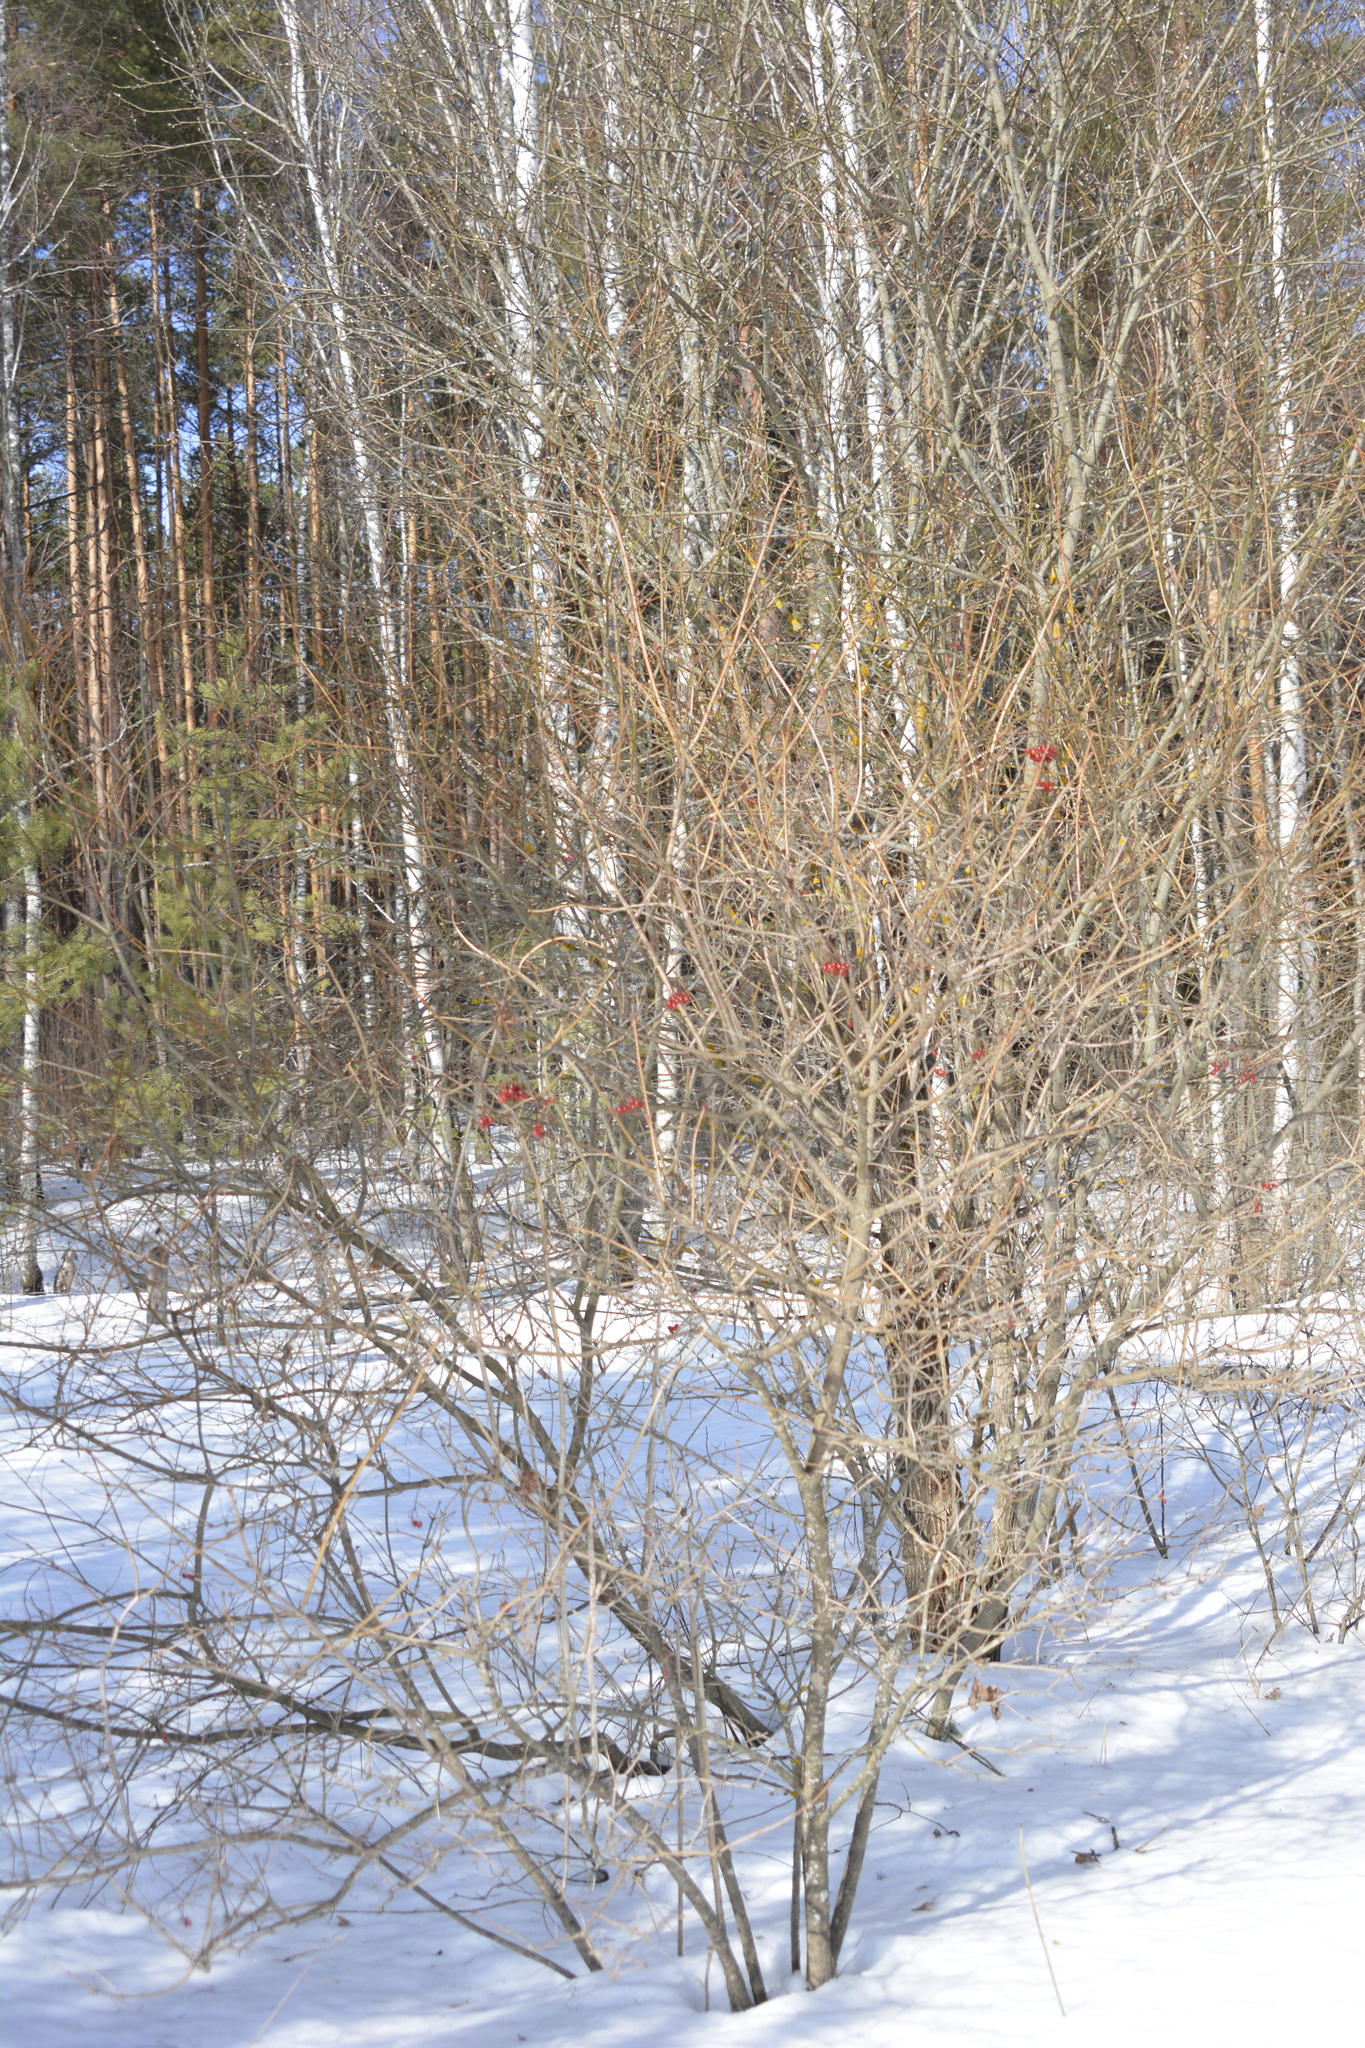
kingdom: Plantae
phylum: Tracheophyta
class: Magnoliopsida
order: Dipsacales
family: Viburnaceae
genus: Viburnum
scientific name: Viburnum opulus
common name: Guelder-rose
